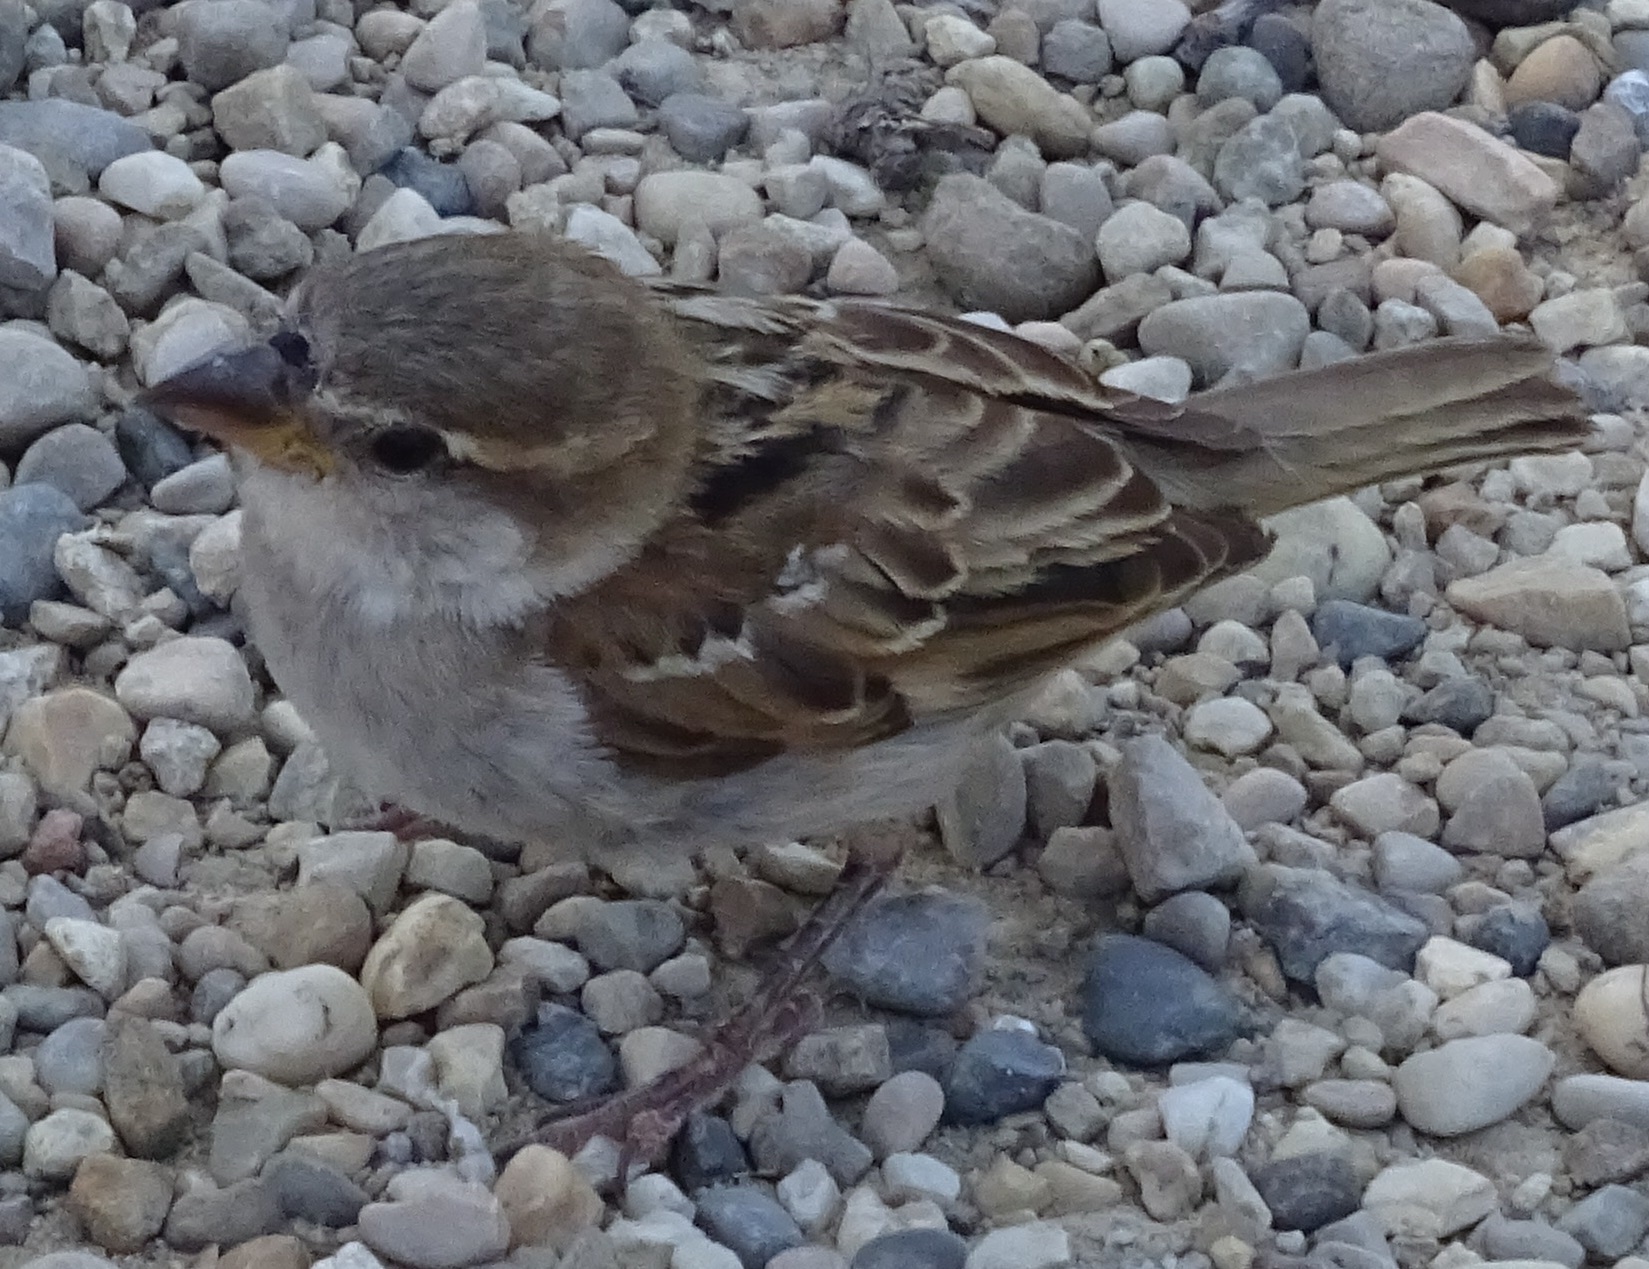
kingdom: Animalia
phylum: Chordata
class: Aves
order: Passeriformes
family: Passeridae
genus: Passer
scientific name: Passer domesticus
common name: House sparrow
